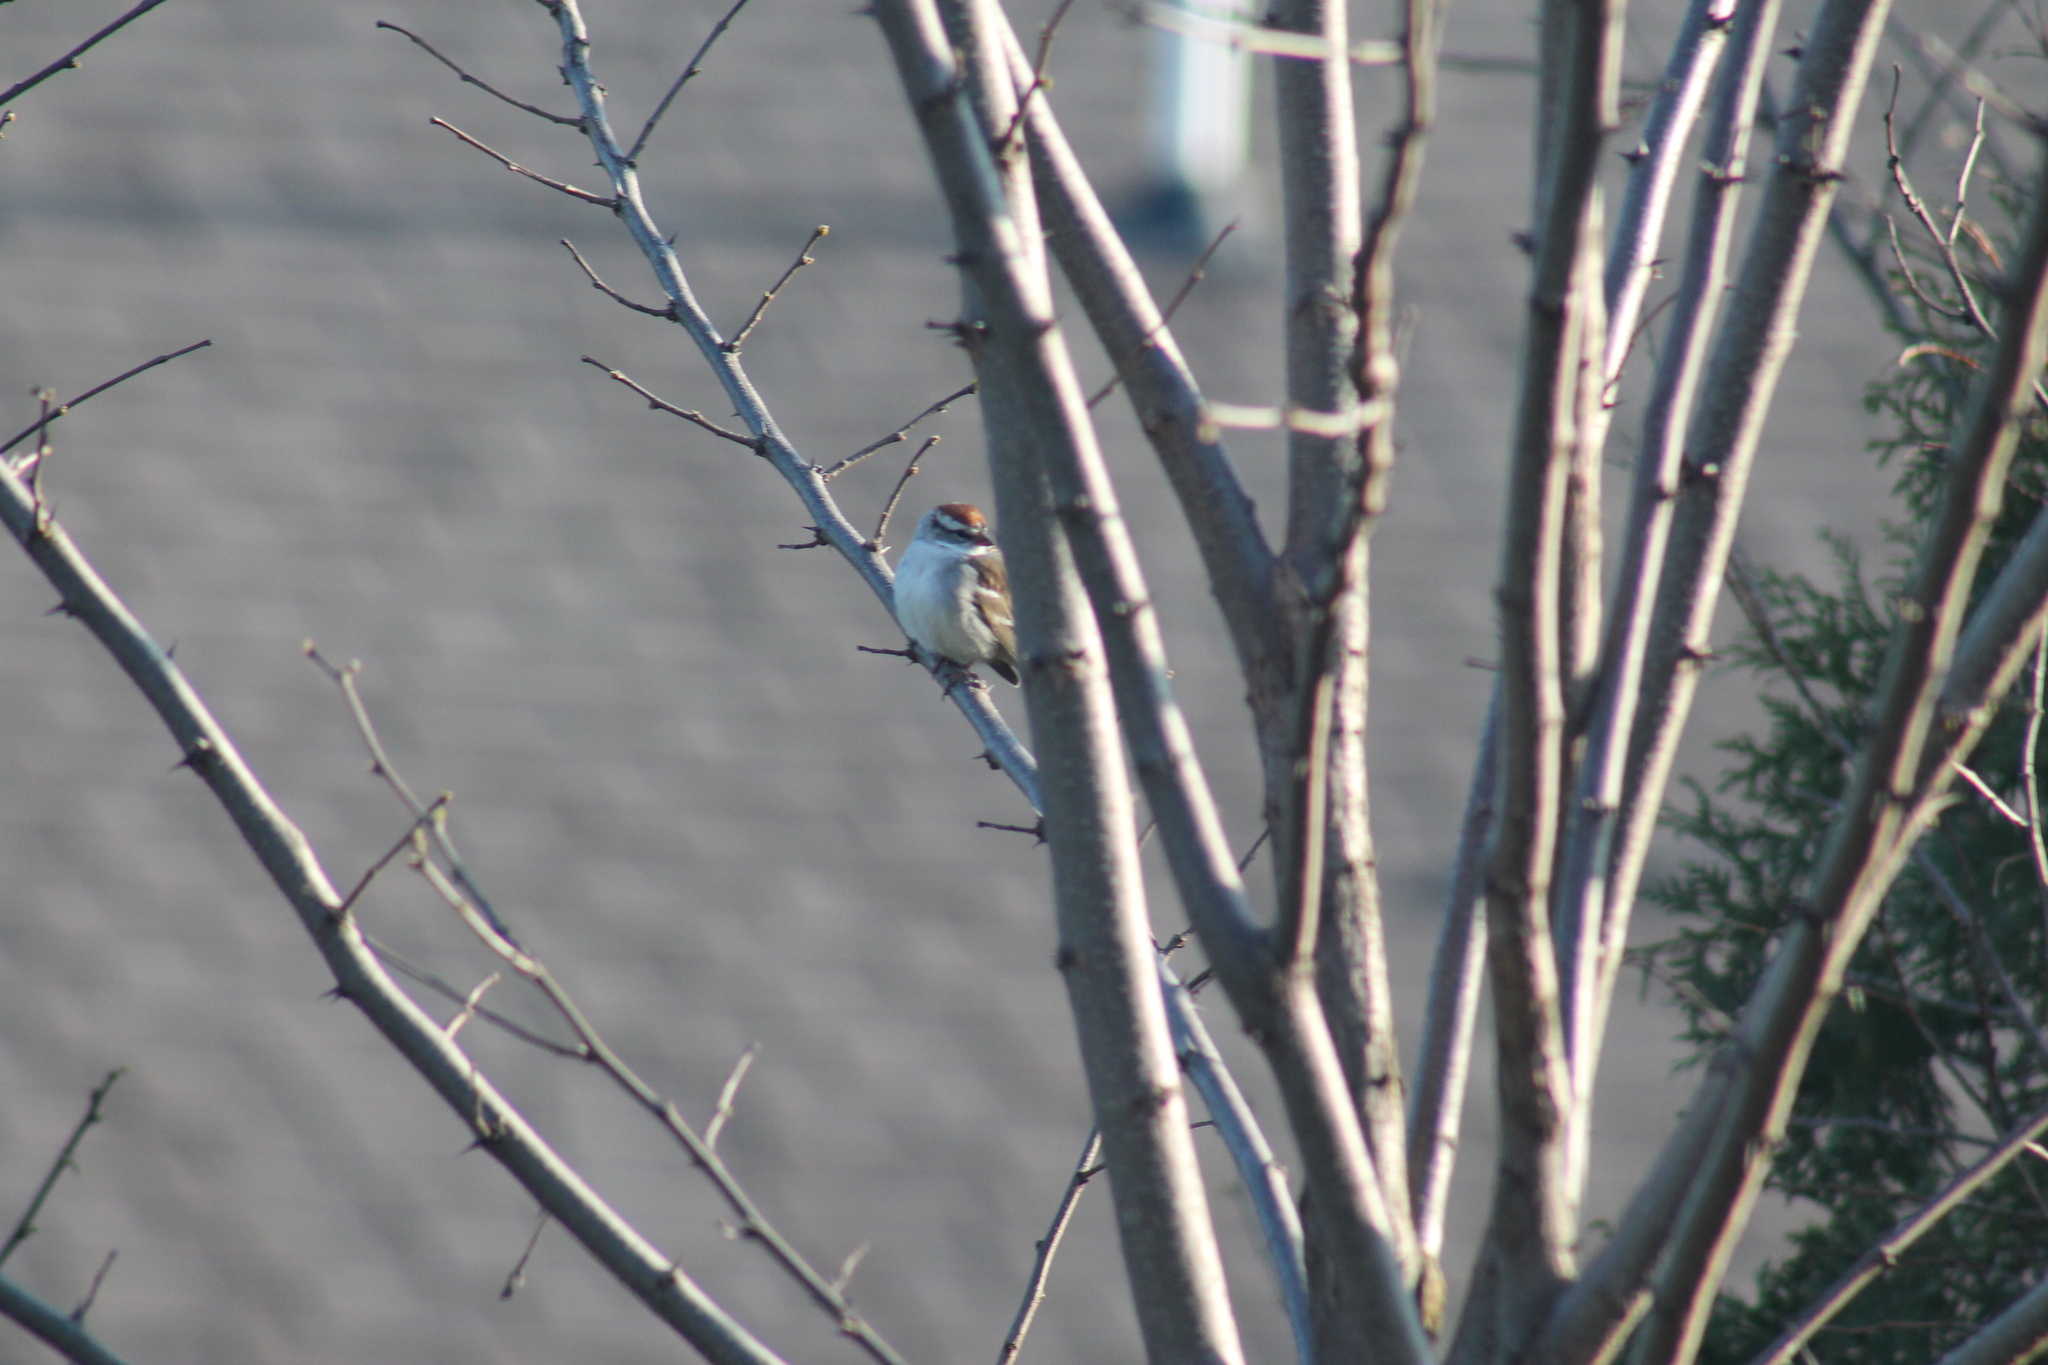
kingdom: Animalia
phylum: Chordata
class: Aves
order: Passeriformes
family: Passerellidae
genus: Spizella
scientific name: Spizella passerina
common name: Chipping sparrow
